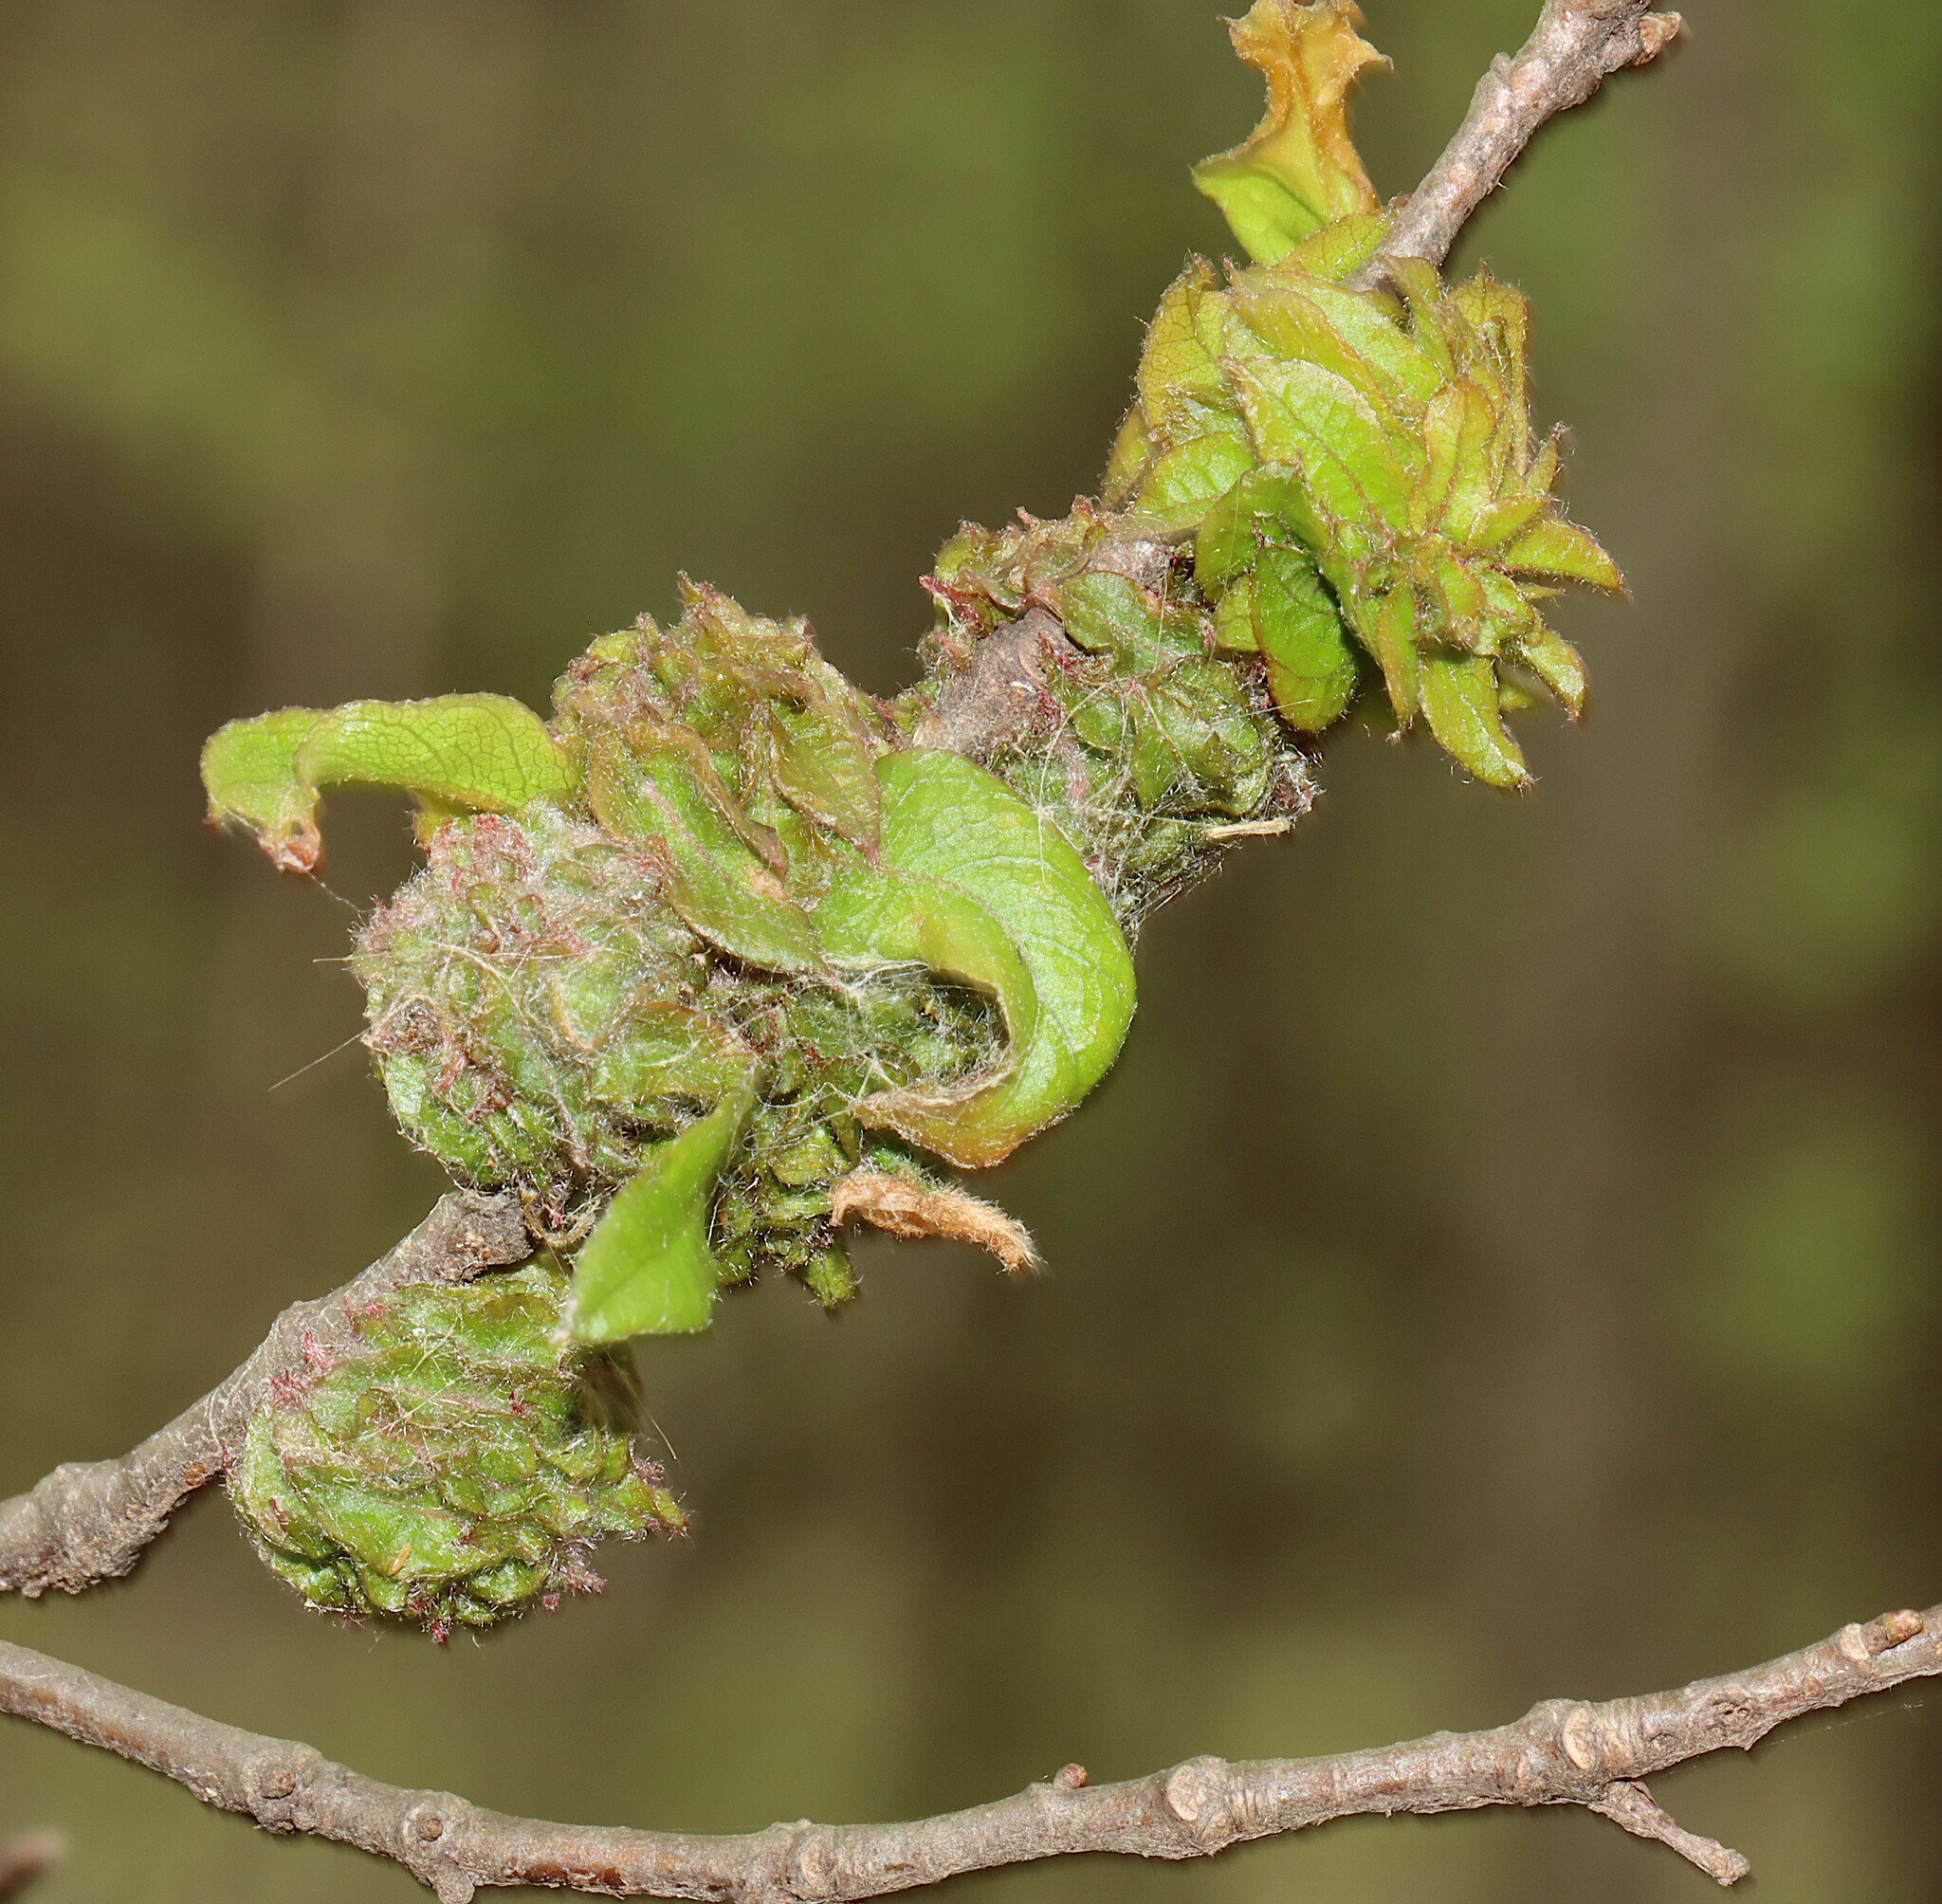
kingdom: Animalia
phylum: Arthropoda
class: Insecta
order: Hymenoptera
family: Cynipidae
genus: Dryocosmus
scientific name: Dryocosmus
